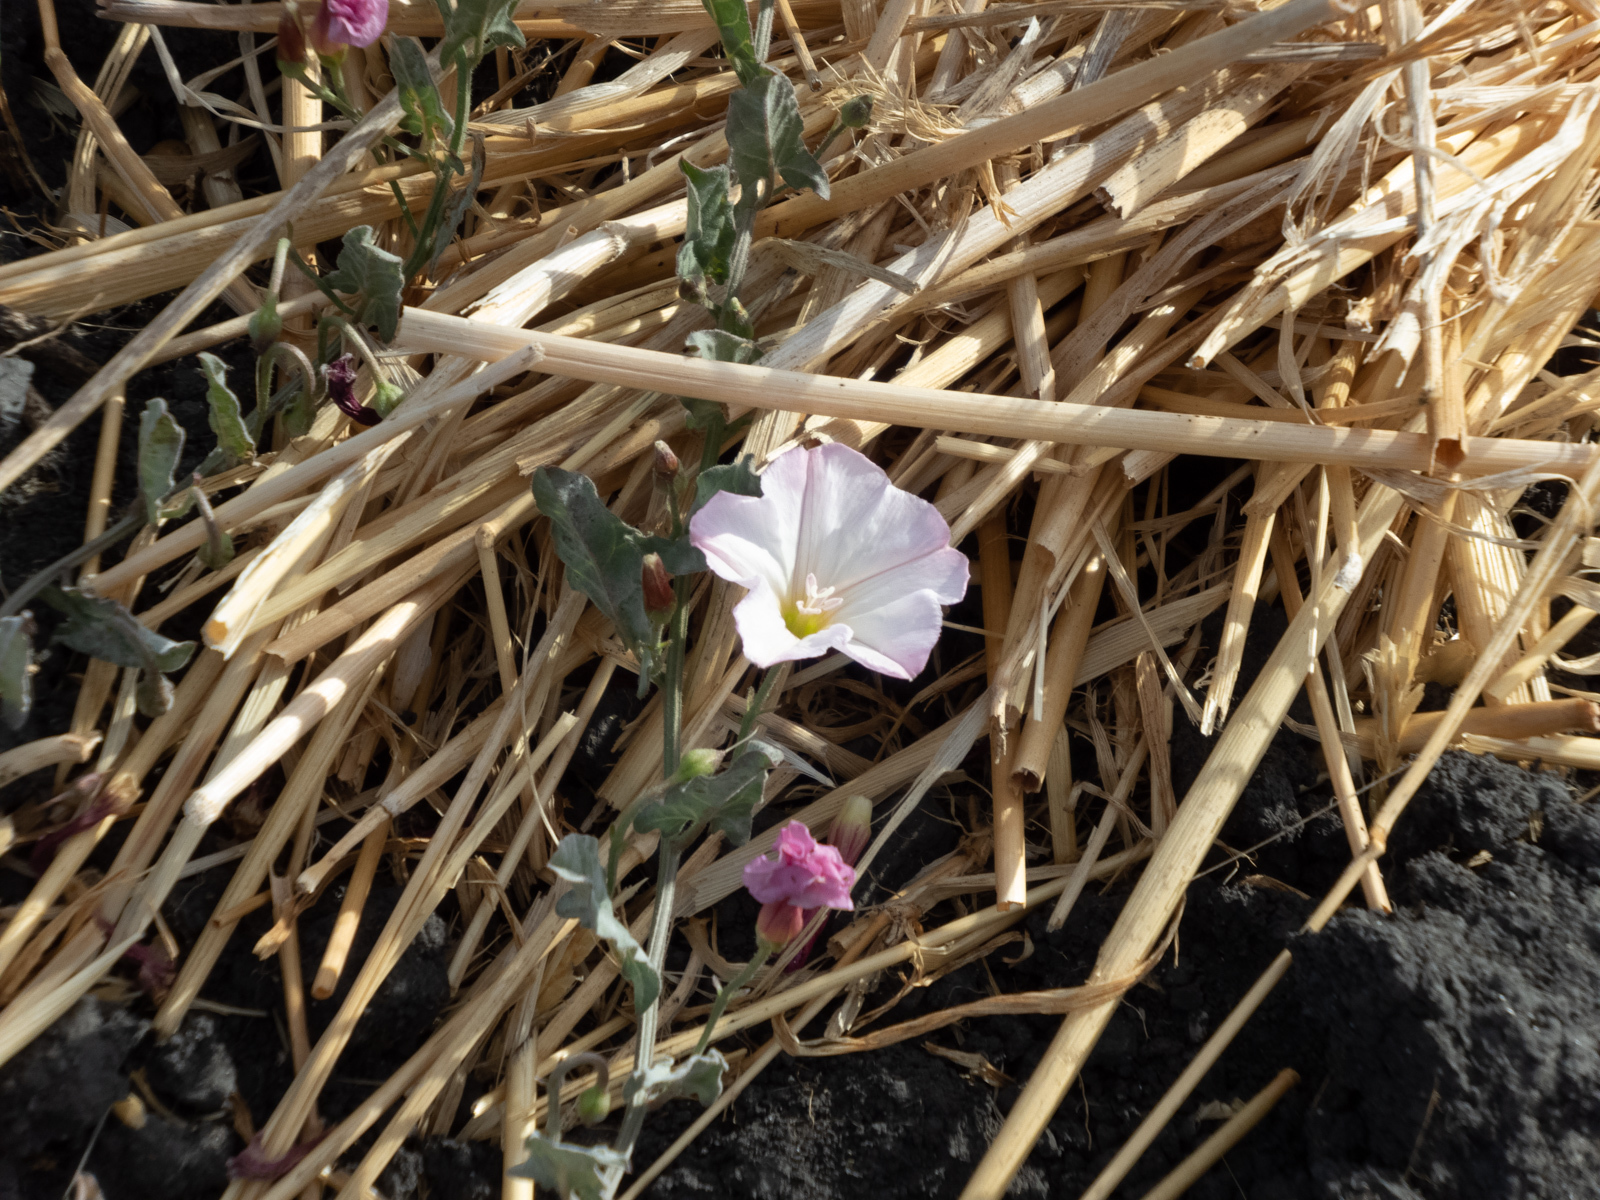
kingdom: Plantae
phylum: Tracheophyta
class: Magnoliopsida
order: Solanales
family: Convolvulaceae
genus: Convolvulus
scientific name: Convolvulus arvensis
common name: Field bindweed
